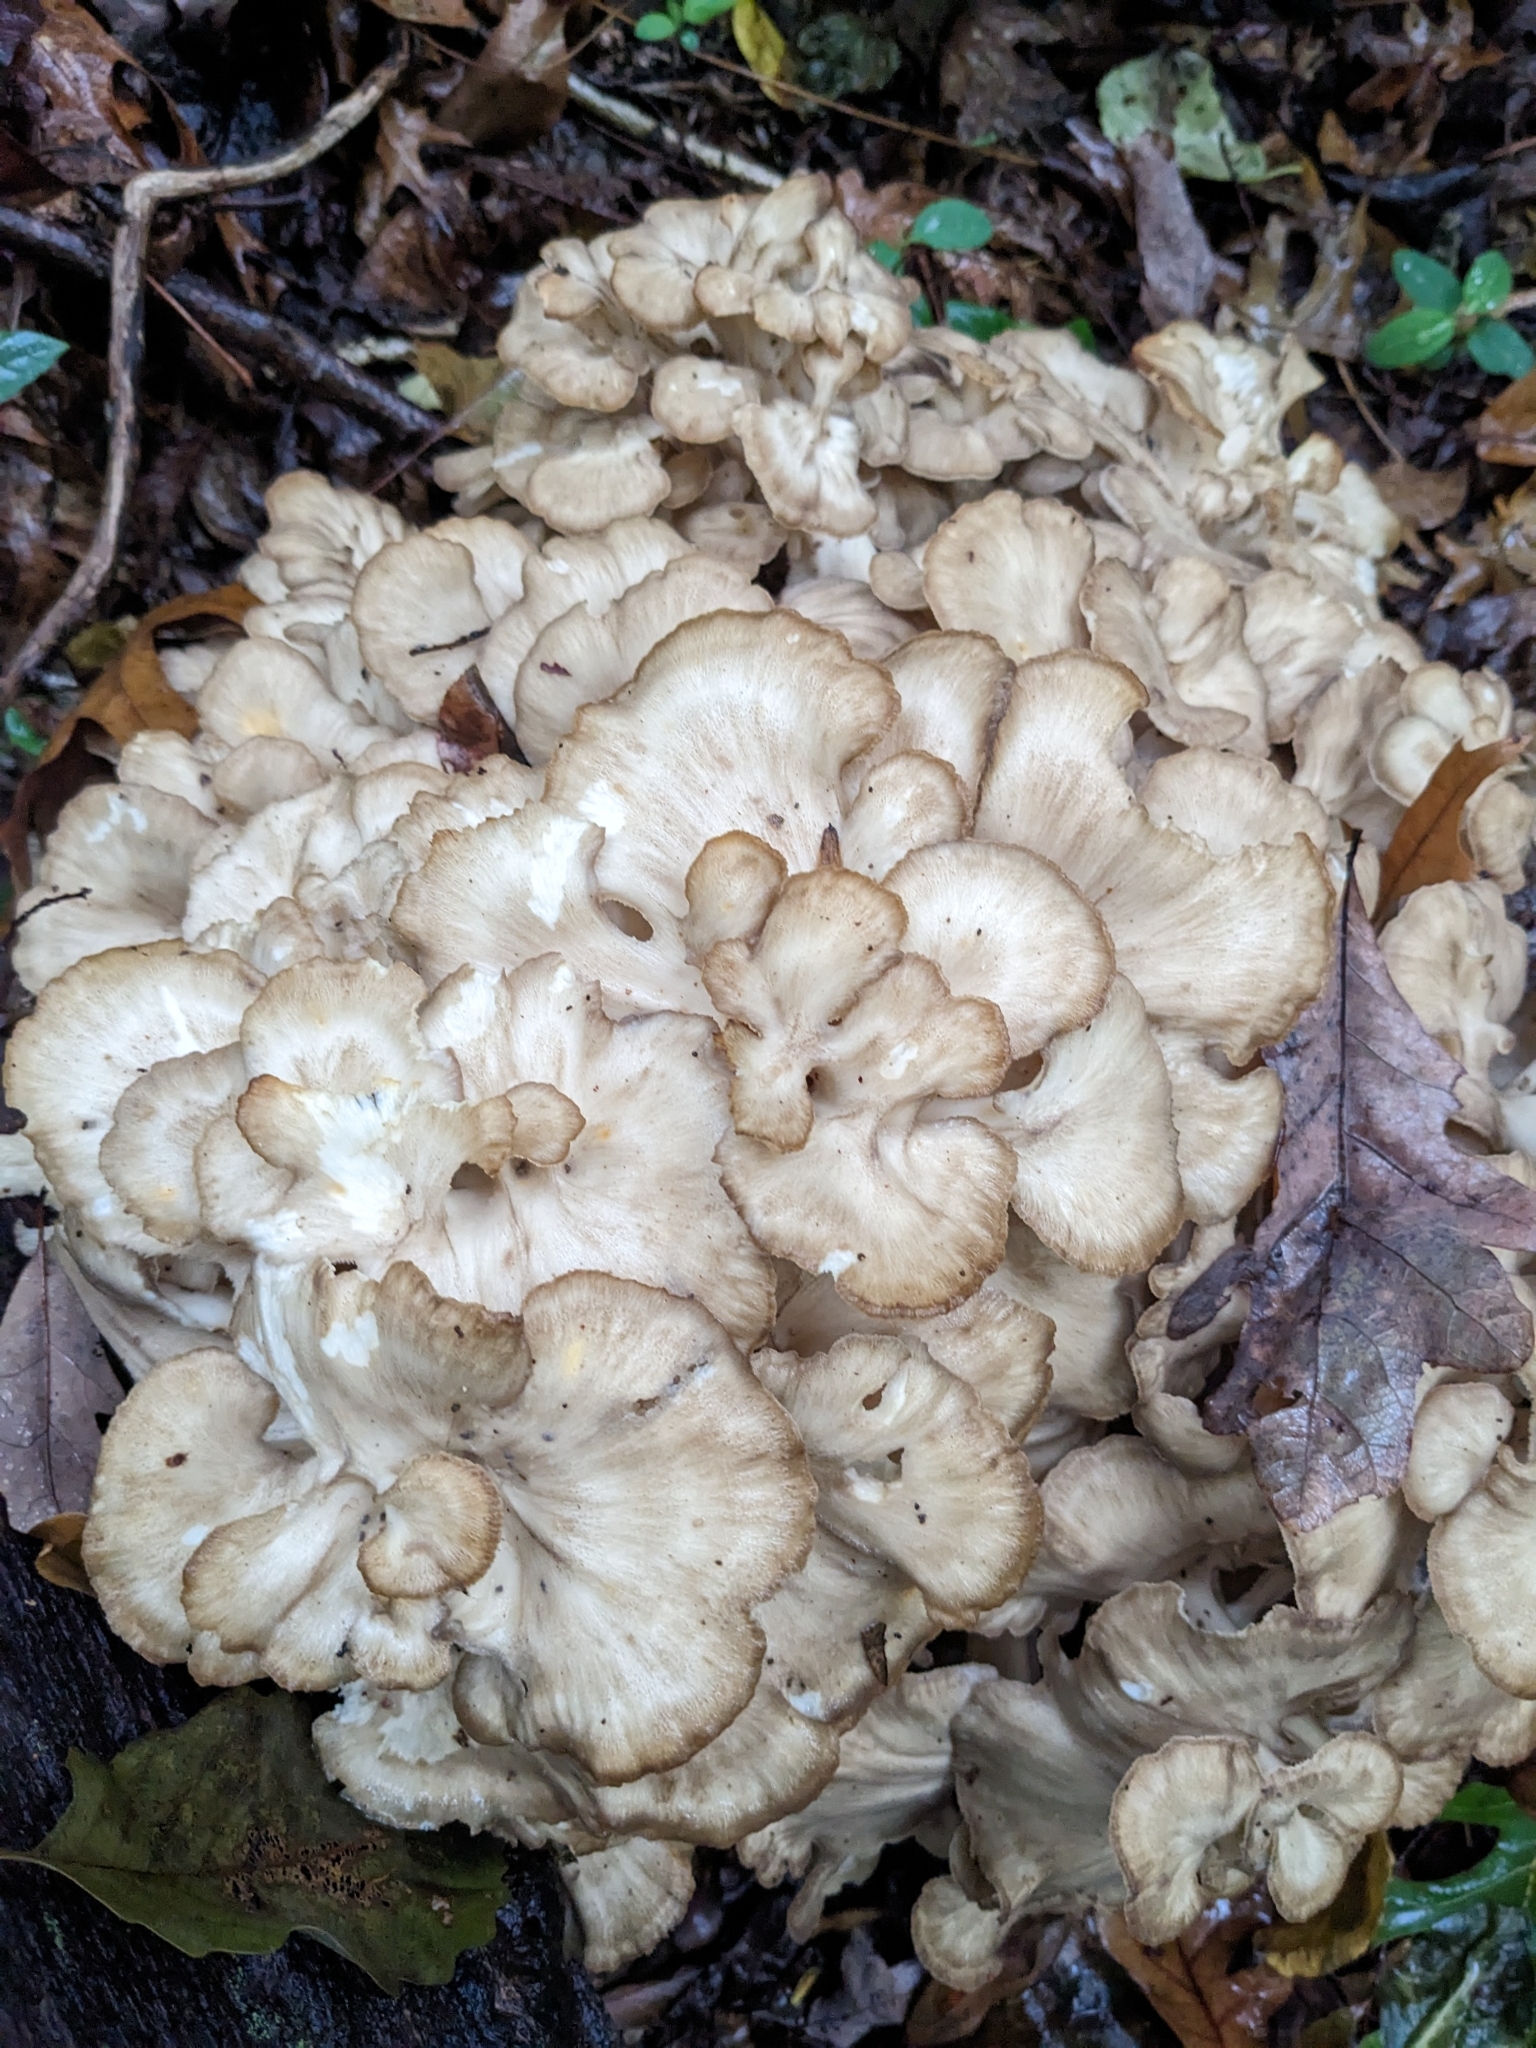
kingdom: Fungi
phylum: Basidiomycota
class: Agaricomycetes
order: Polyporales
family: Grifolaceae
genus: Grifola
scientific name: Grifola frondosa
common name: Hen of the woods
